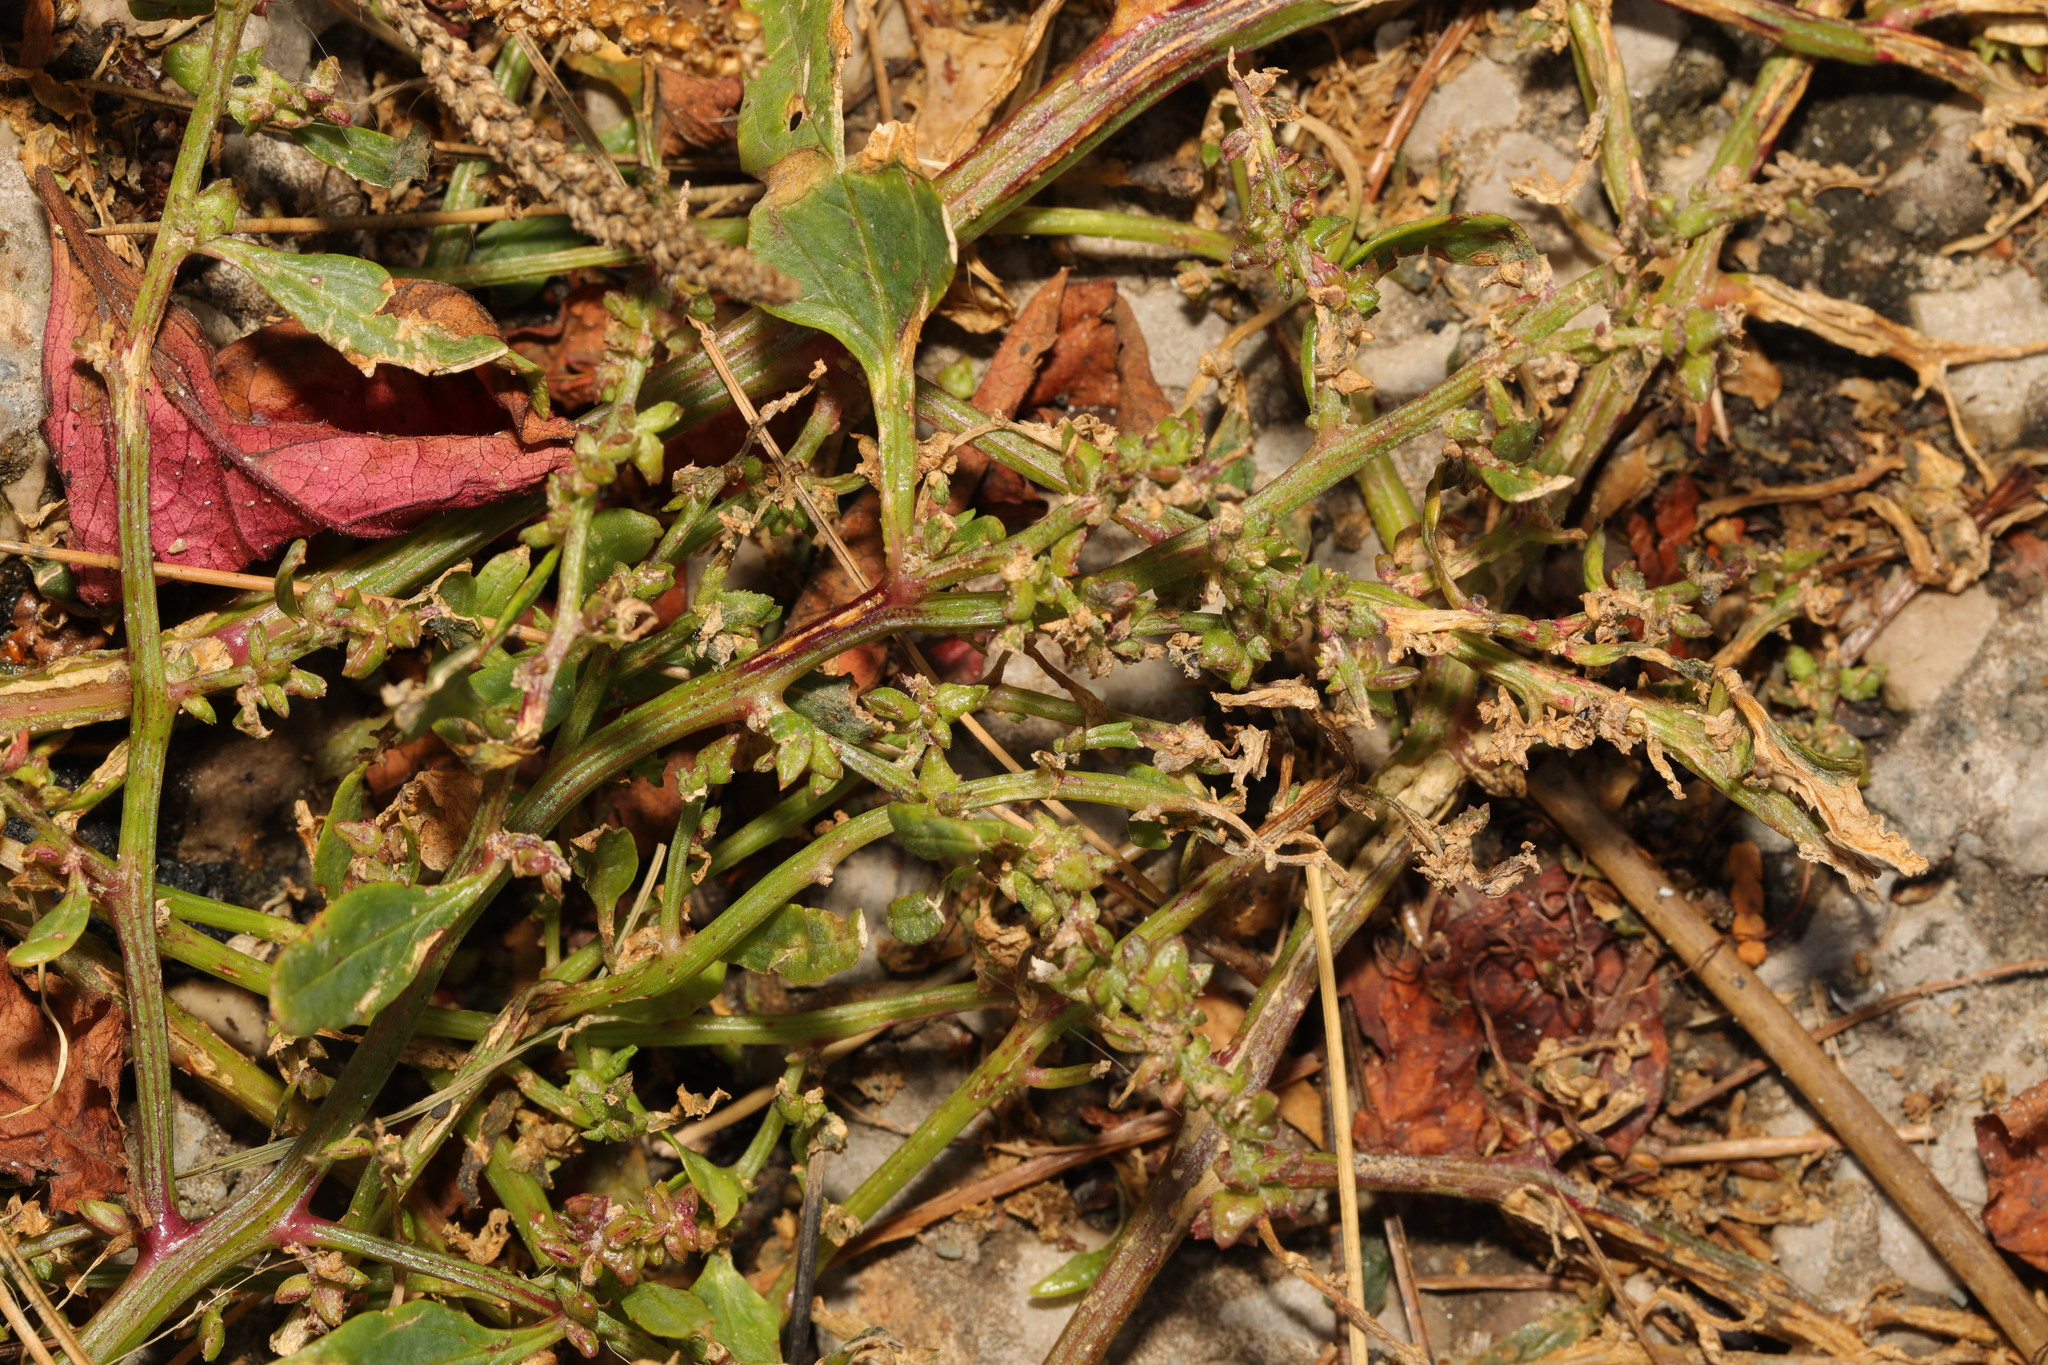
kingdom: Plantae
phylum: Tracheophyta
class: Magnoliopsida
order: Caryophyllales
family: Amaranthaceae
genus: Atriplex
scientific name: Atriplex prostrata
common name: Spear-leaved orache
